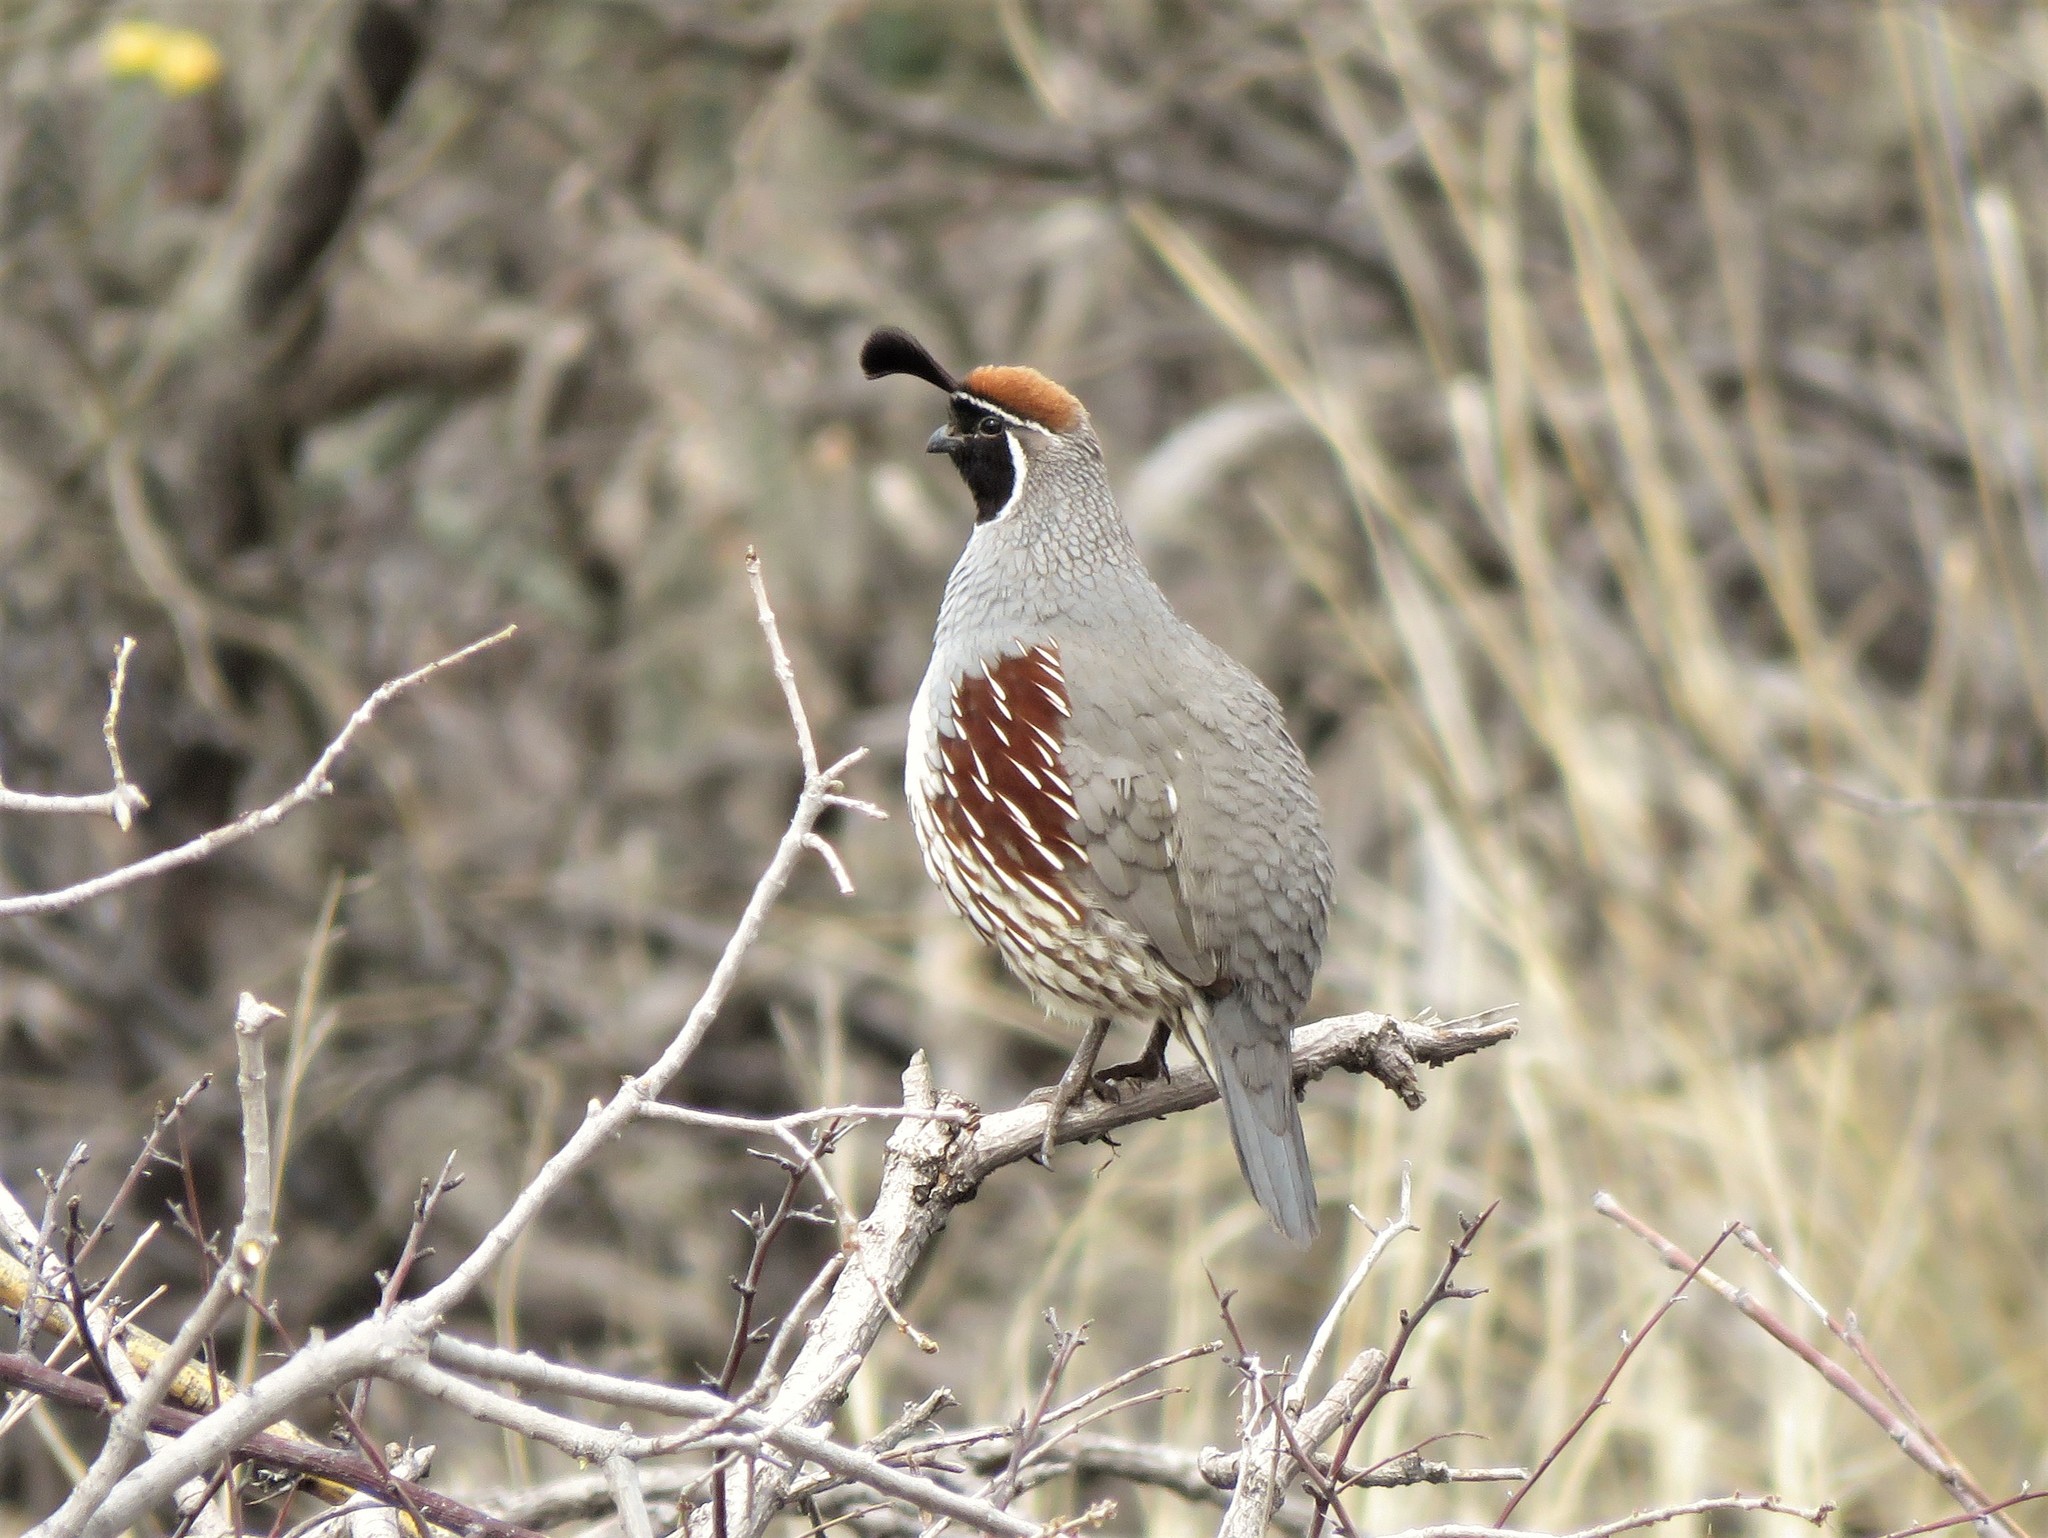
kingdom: Animalia
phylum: Chordata
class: Aves
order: Galliformes
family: Odontophoridae
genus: Callipepla
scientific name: Callipepla gambelii
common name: Gambel's quail
